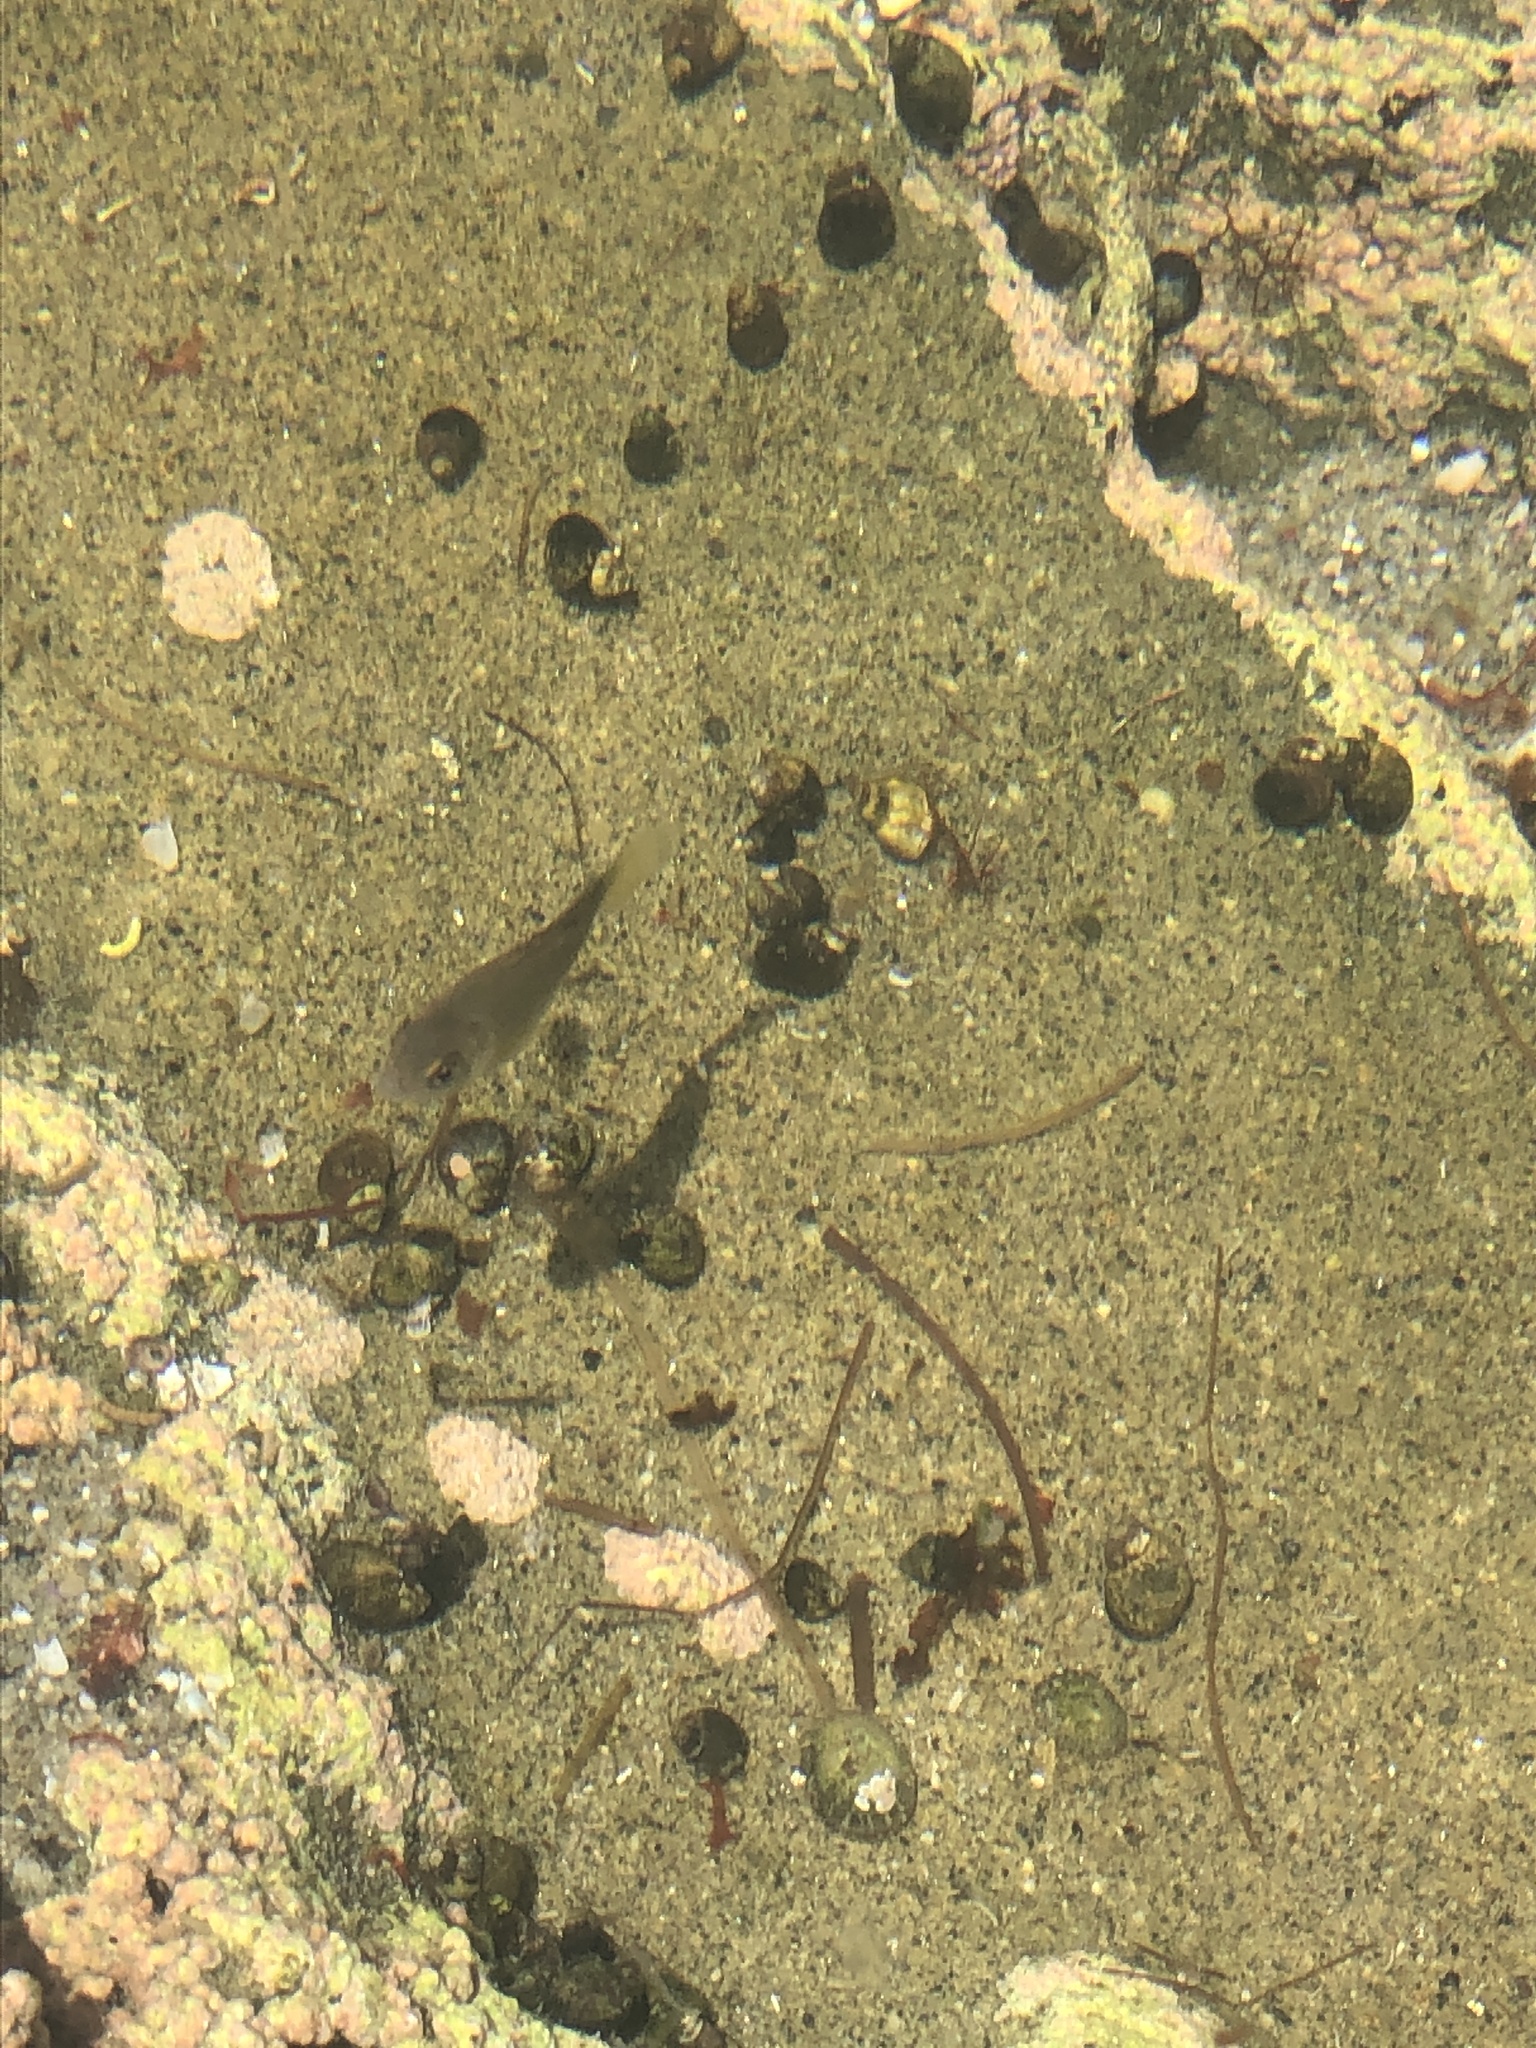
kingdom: Animalia
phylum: Chordata
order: Perciformes
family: Kyphosidae
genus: Girella
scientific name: Girella nigricans
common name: Opaleye
